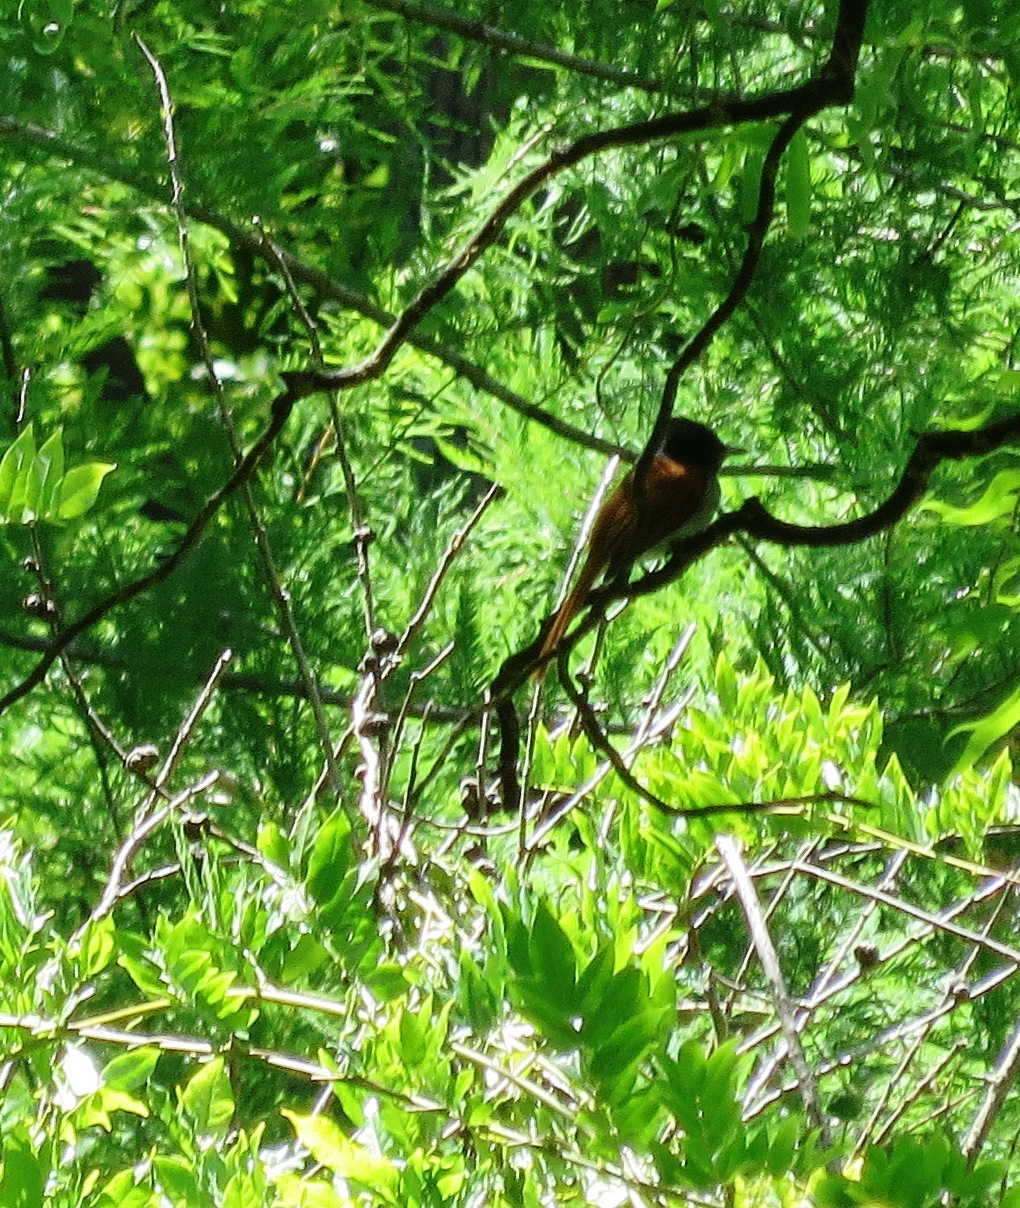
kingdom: Animalia
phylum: Chordata
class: Aves
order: Passeriformes
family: Monarchidae
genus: Terpsiphone
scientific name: Terpsiphone viridis
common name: African paradise flycatcher
